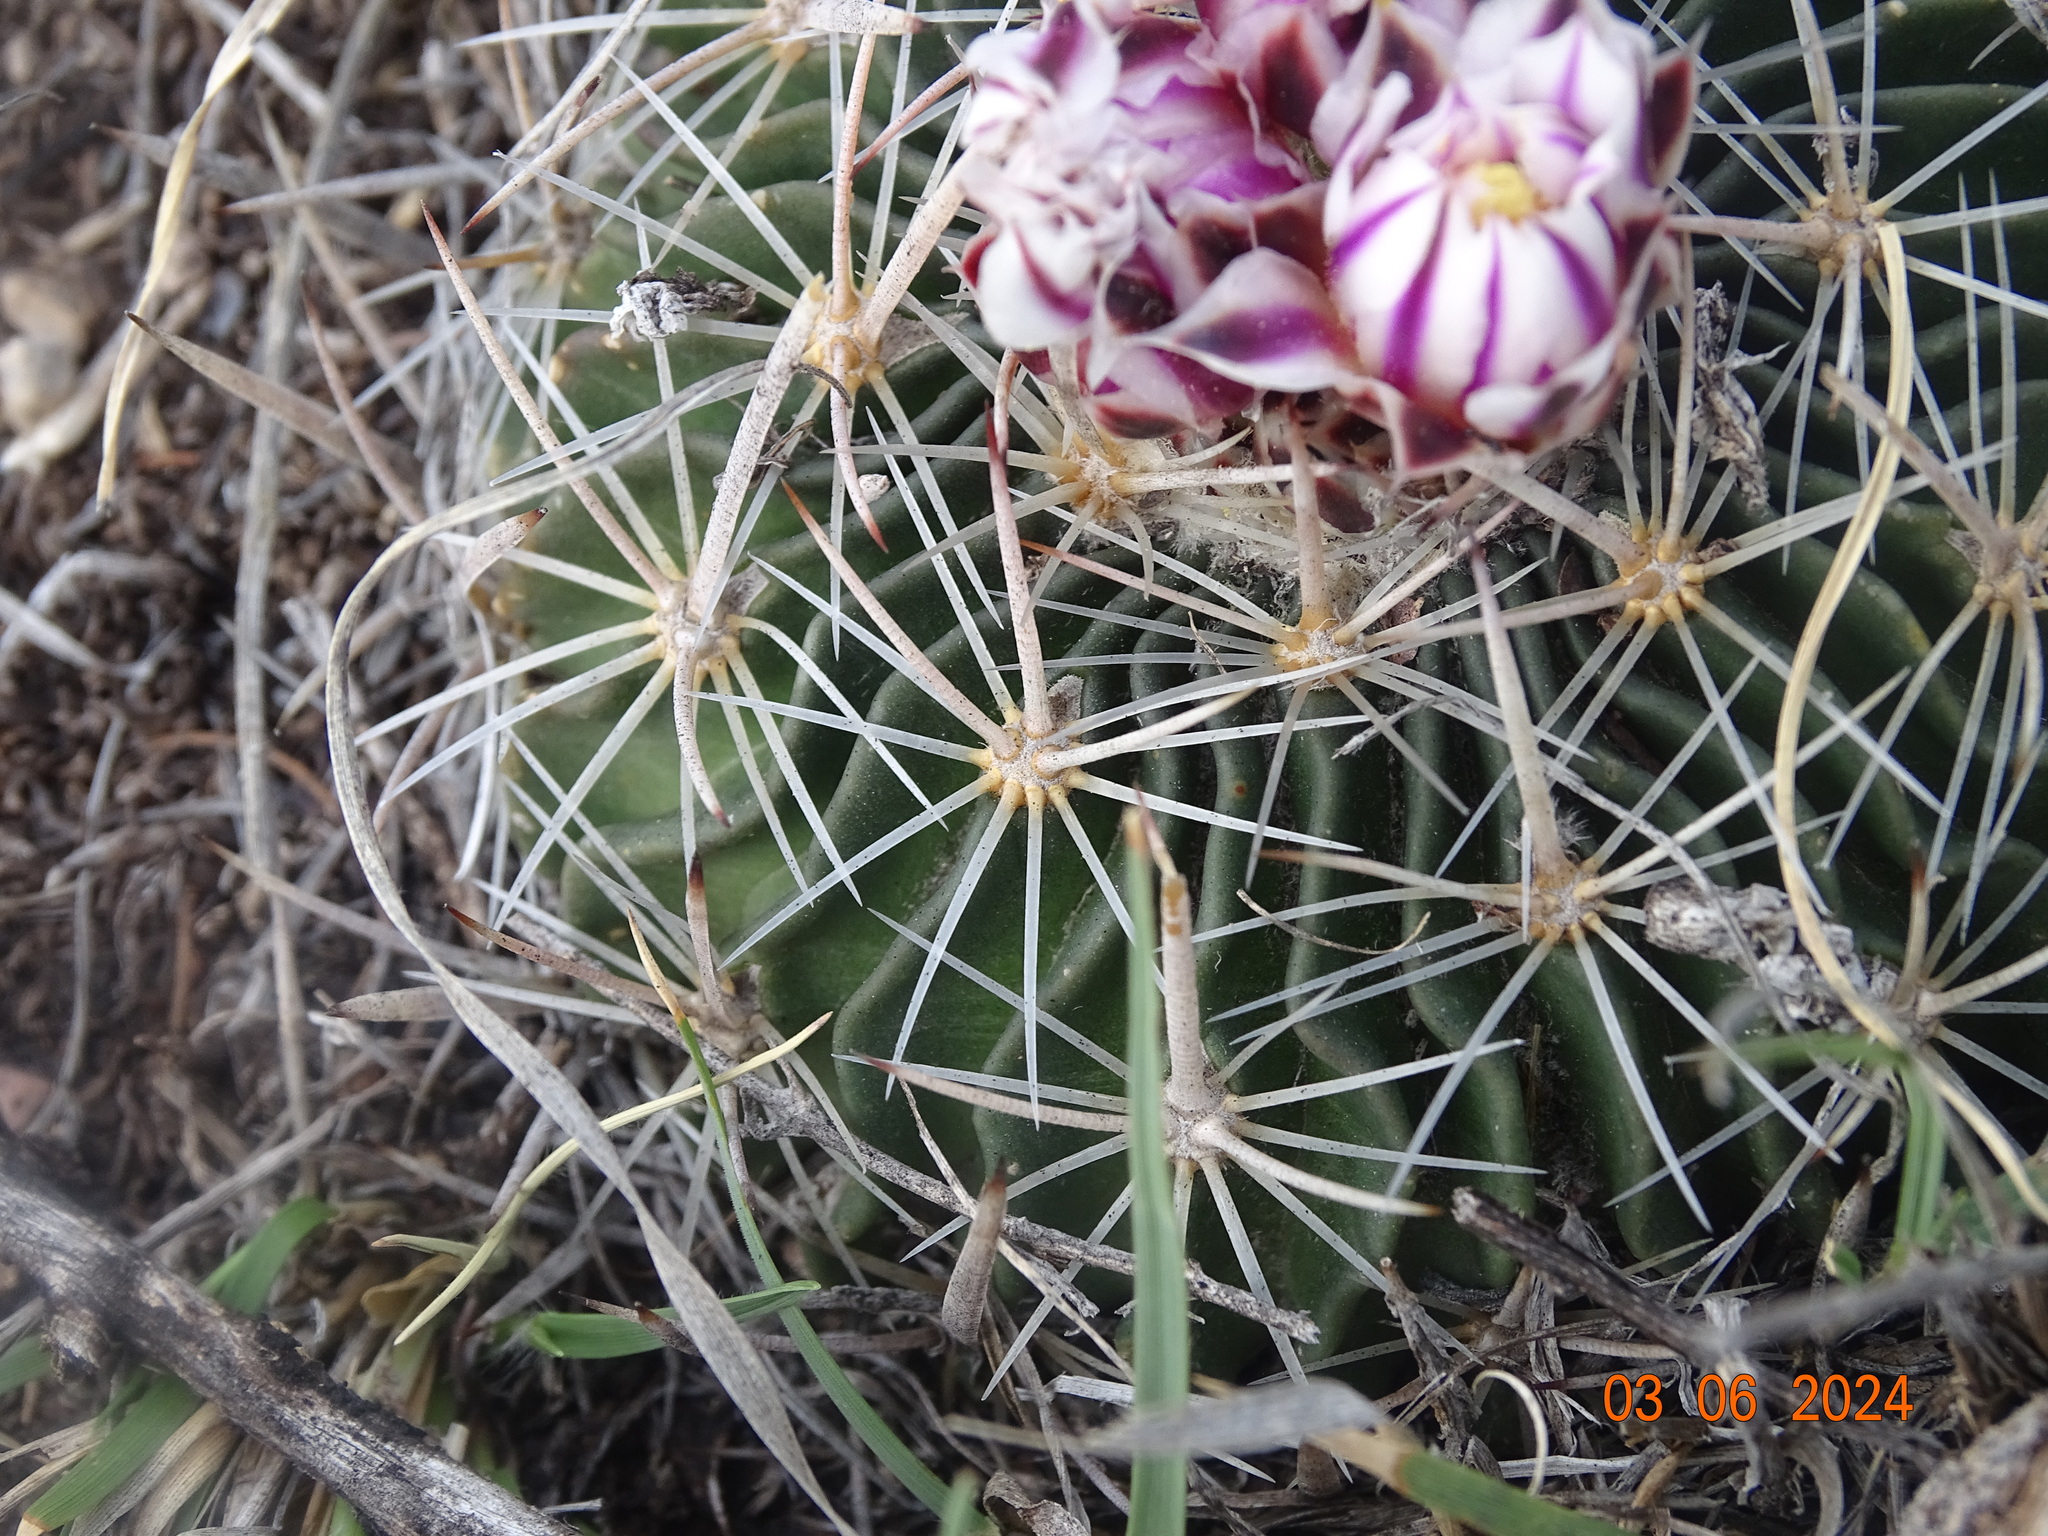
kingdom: Plantae
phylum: Tracheophyta
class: Magnoliopsida
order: Caryophyllales
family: Cactaceae
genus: Stenocactus
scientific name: Stenocactus crispatus
